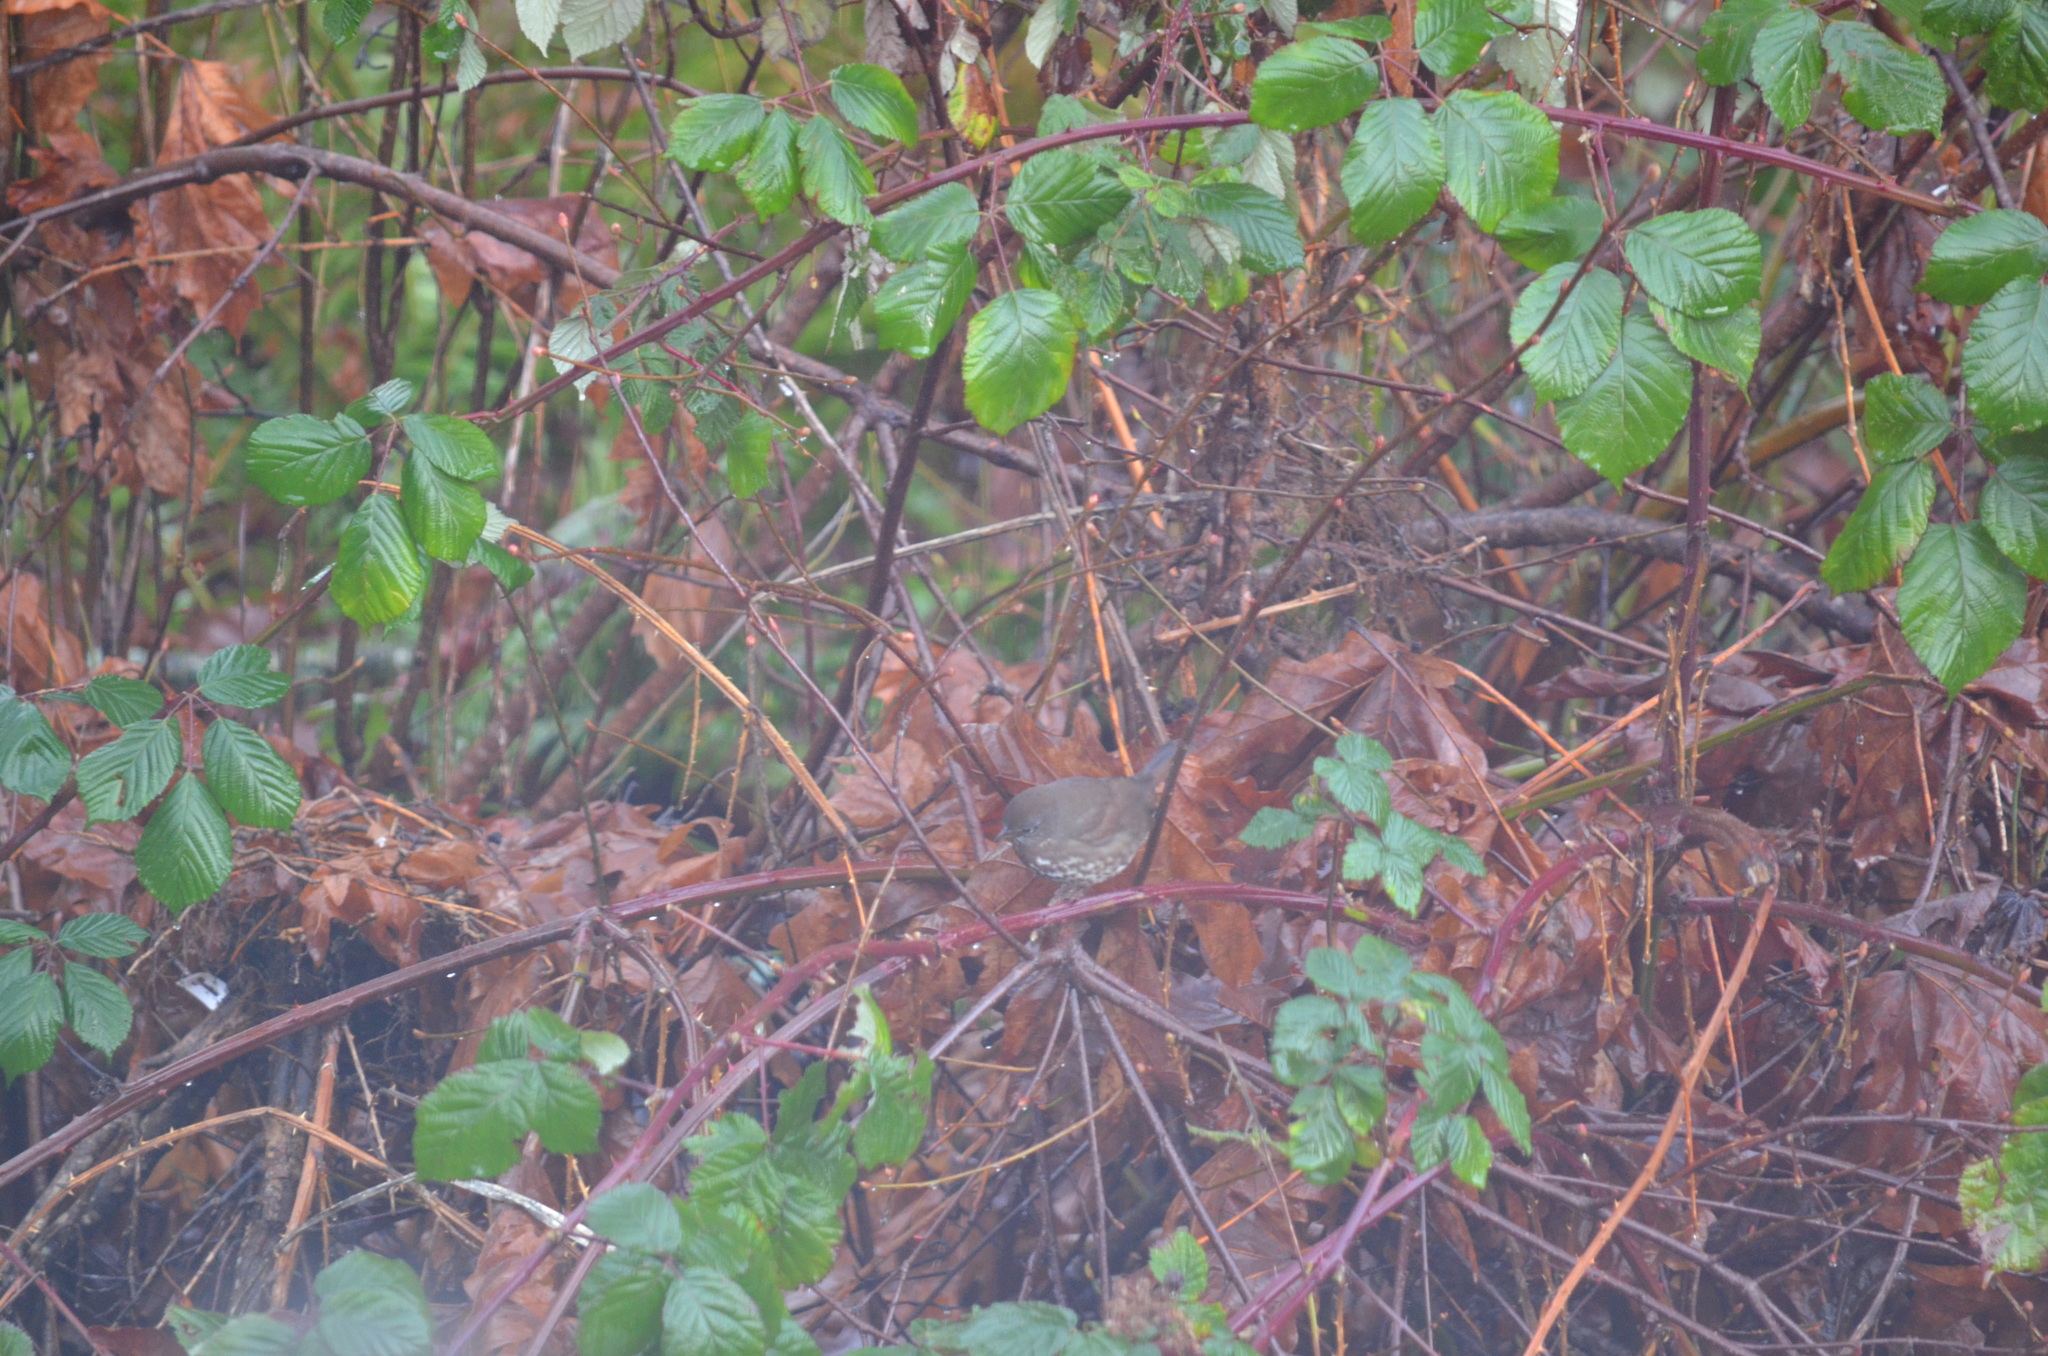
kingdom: Animalia
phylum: Chordata
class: Aves
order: Passeriformes
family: Passerellidae
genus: Passerella
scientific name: Passerella iliaca
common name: Fox sparrow
